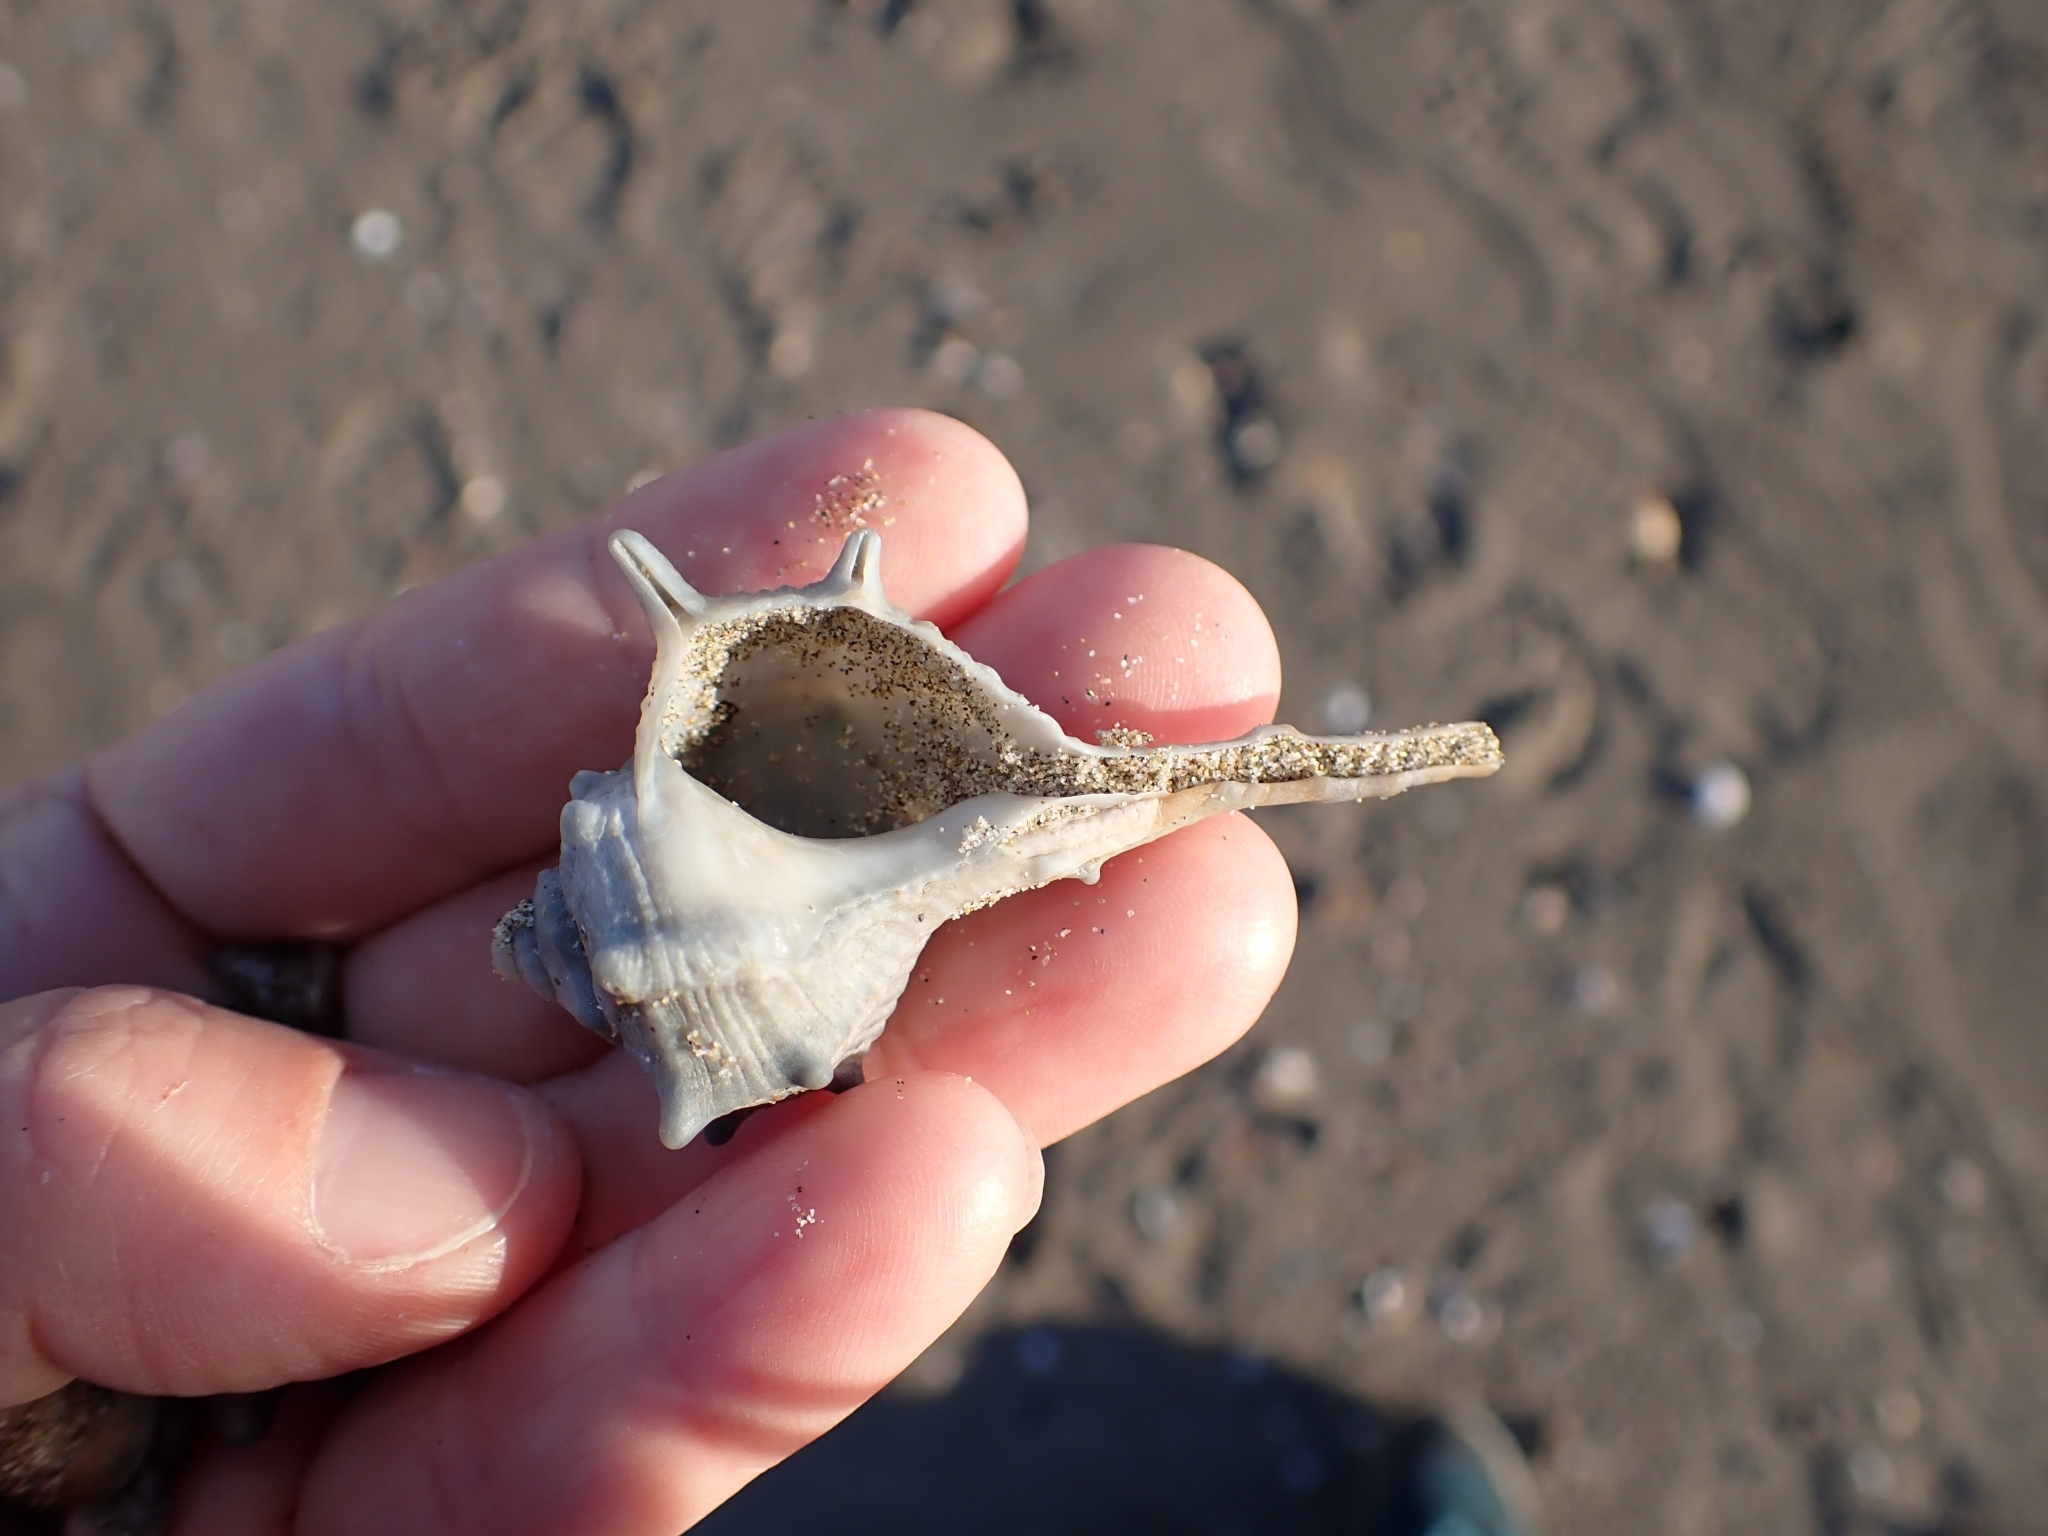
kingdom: Animalia
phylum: Mollusca
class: Gastropoda
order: Neogastropoda
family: Muricidae
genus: Bolinus
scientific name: Bolinus brandaris
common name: Dye murex
